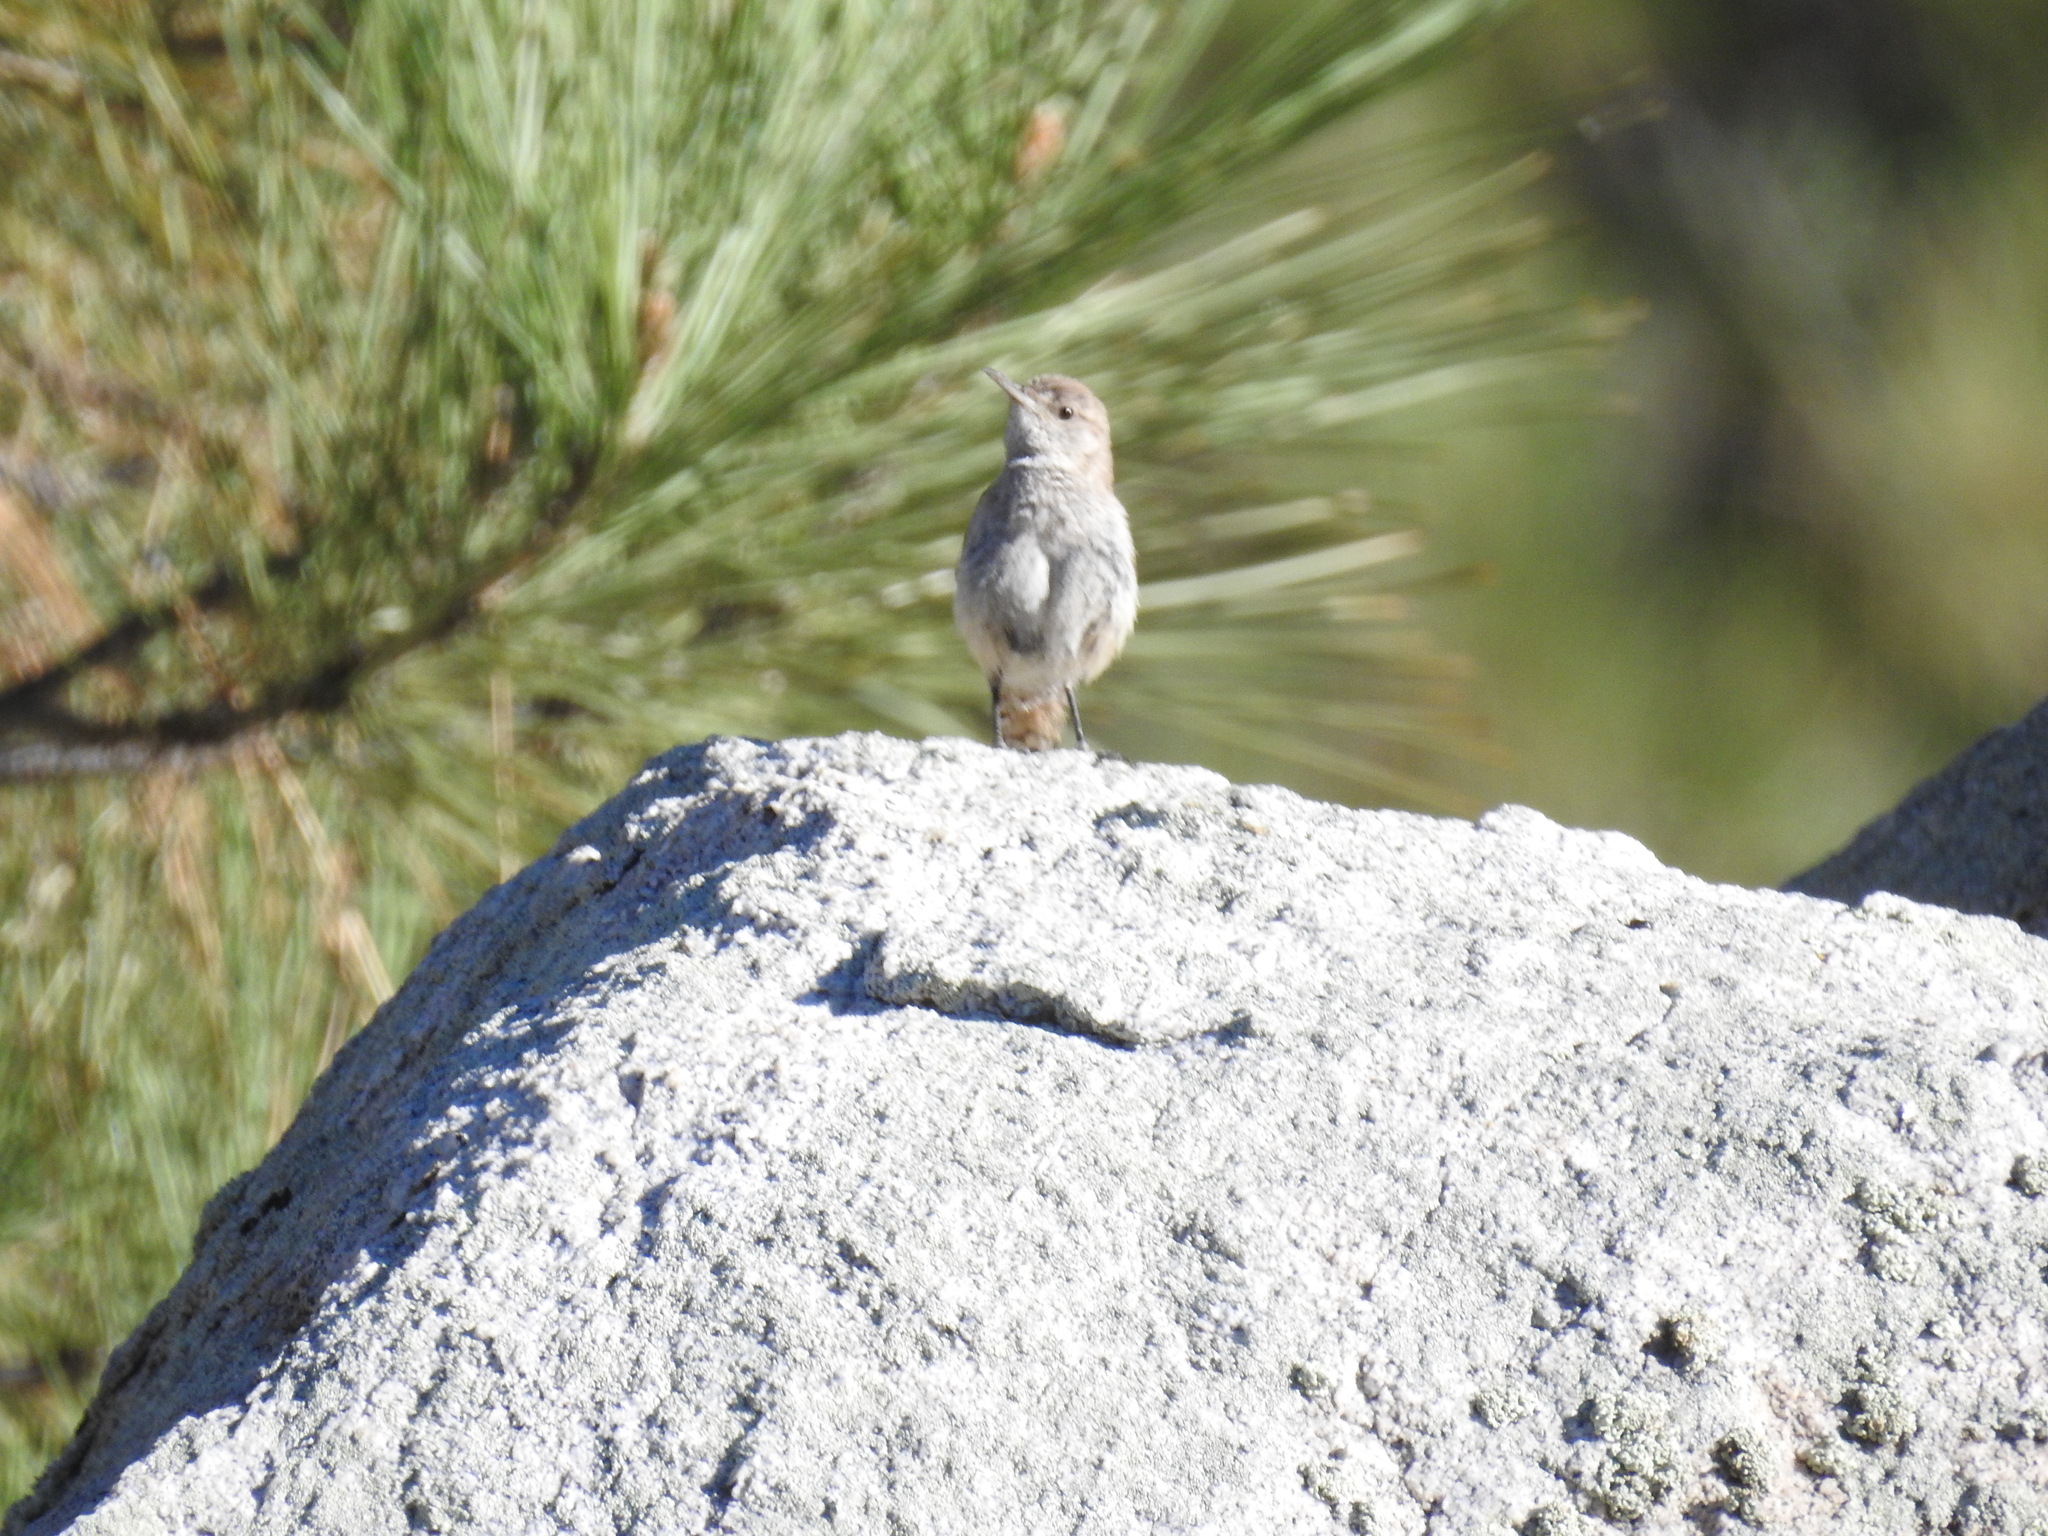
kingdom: Animalia
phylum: Chordata
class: Aves
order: Passeriformes
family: Troglodytidae
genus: Salpinctes
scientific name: Salpinctes obsoletus
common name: Rock wren
